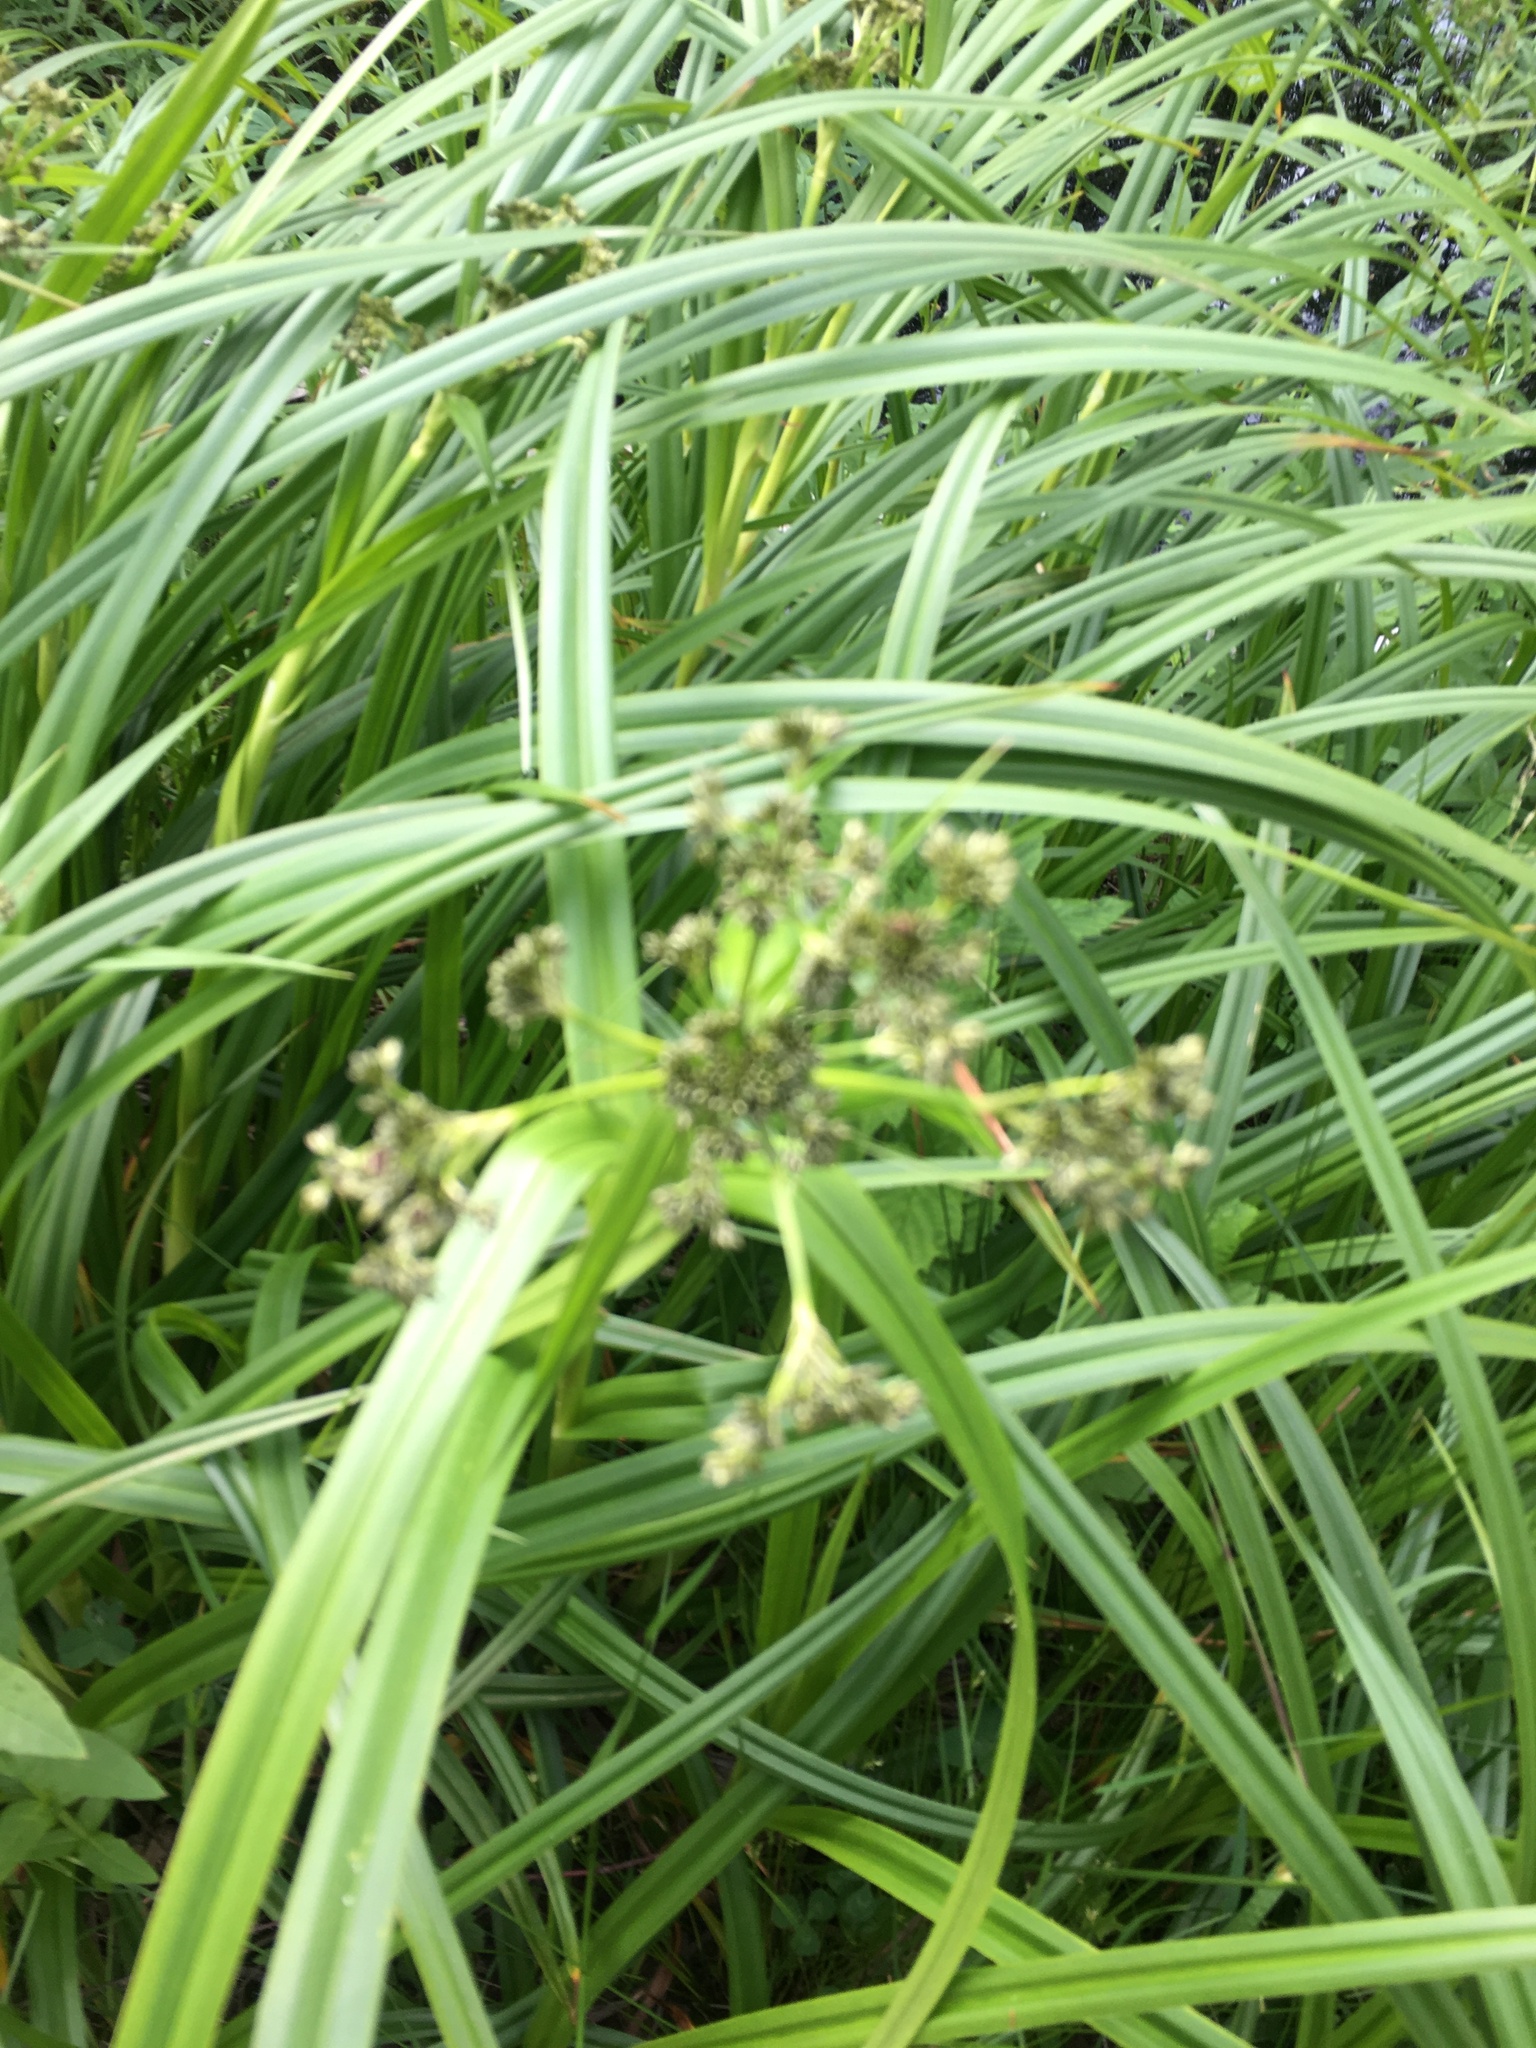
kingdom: Plantae
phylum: Tracheophyta
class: Liliopsida
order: Poales
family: Cyperaceae
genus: Scirpus
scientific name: Scirpus sylvaticus
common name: Wood club-rush
